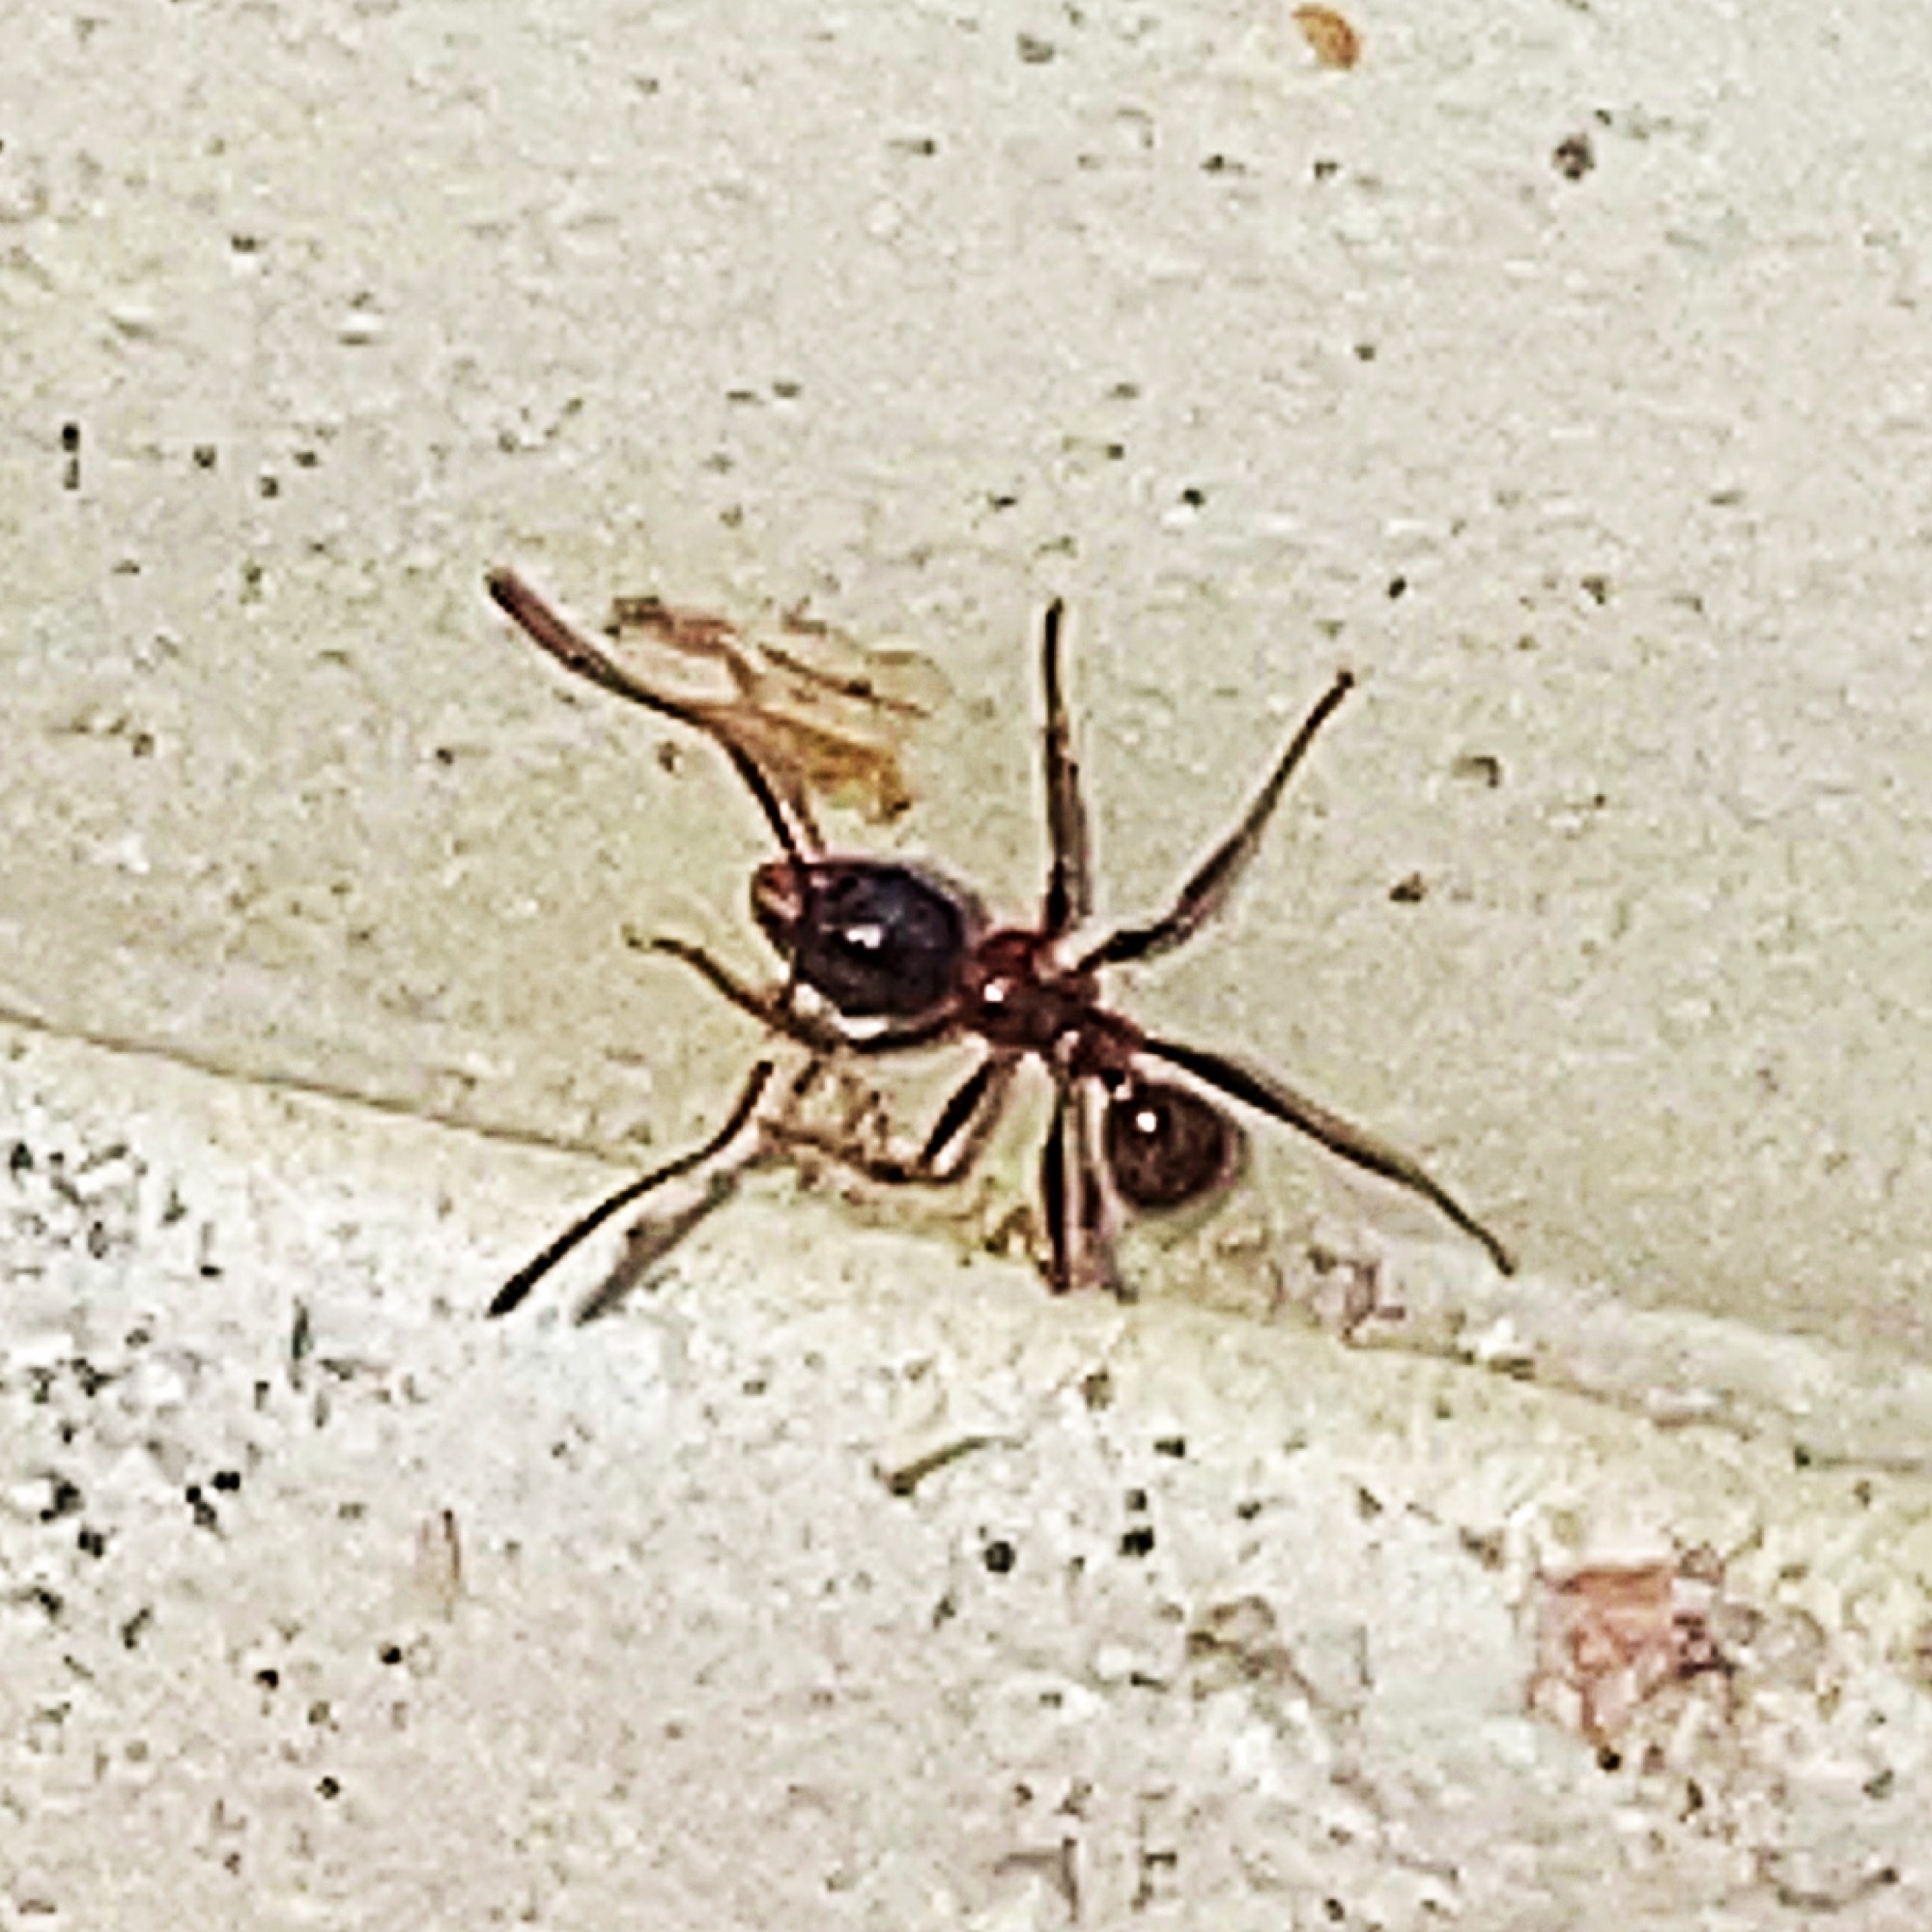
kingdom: Animalia
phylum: Arthropoda
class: Insecta
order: Hymenoptera
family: Formicidae
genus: Pheidole
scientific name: Pheidole dentata
